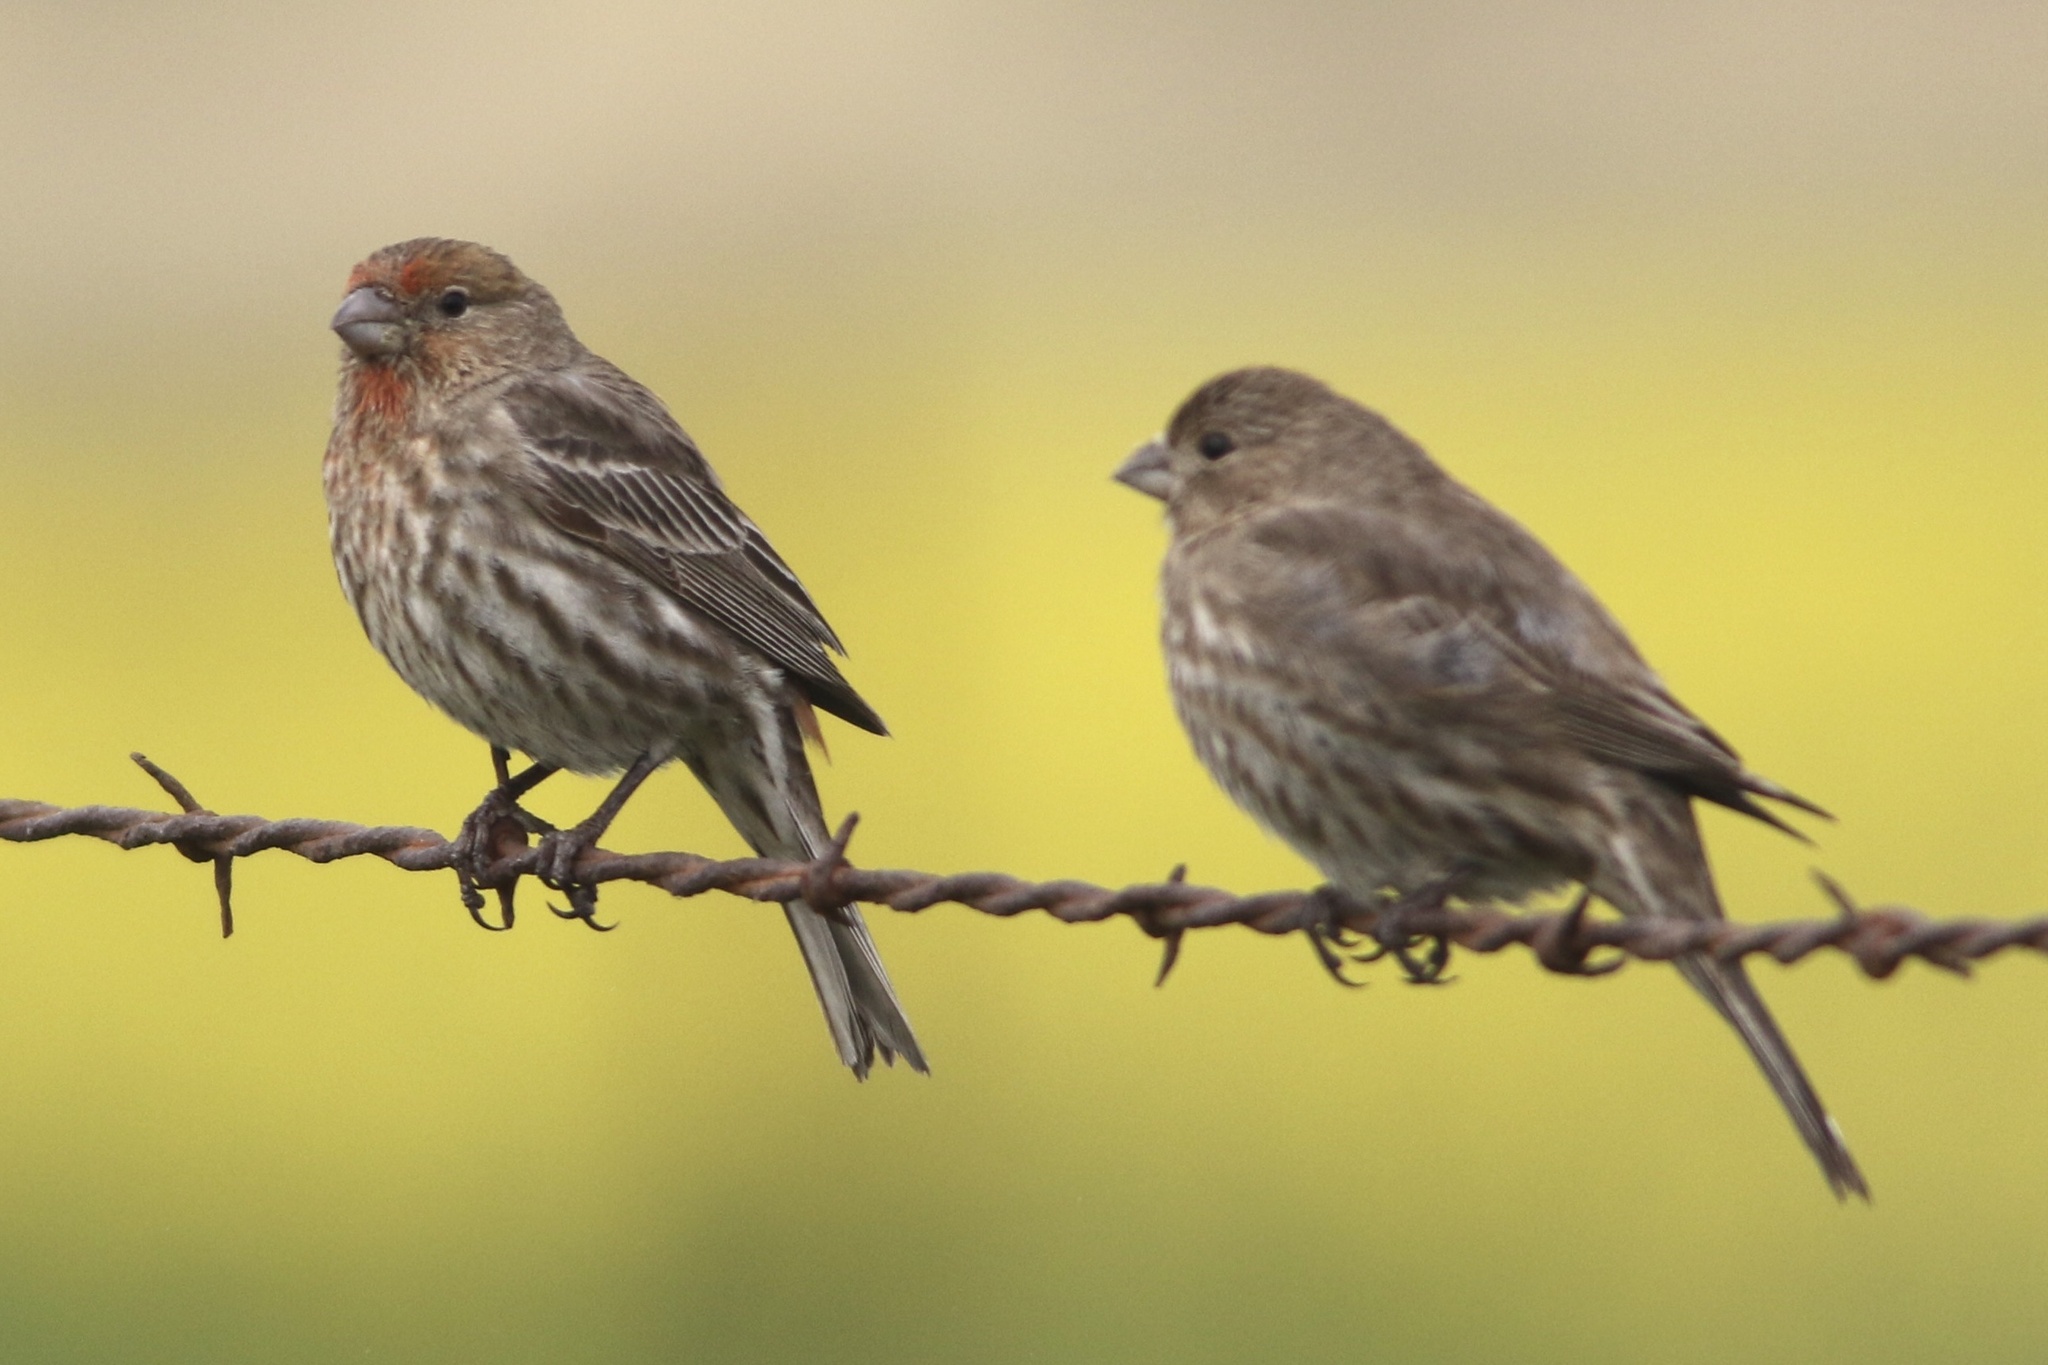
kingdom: Animalia
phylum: Chordata
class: Aves
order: Passeriformes
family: Fringillidae
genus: Haemorhous
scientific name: Haemorhous mexicanus
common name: House finch
